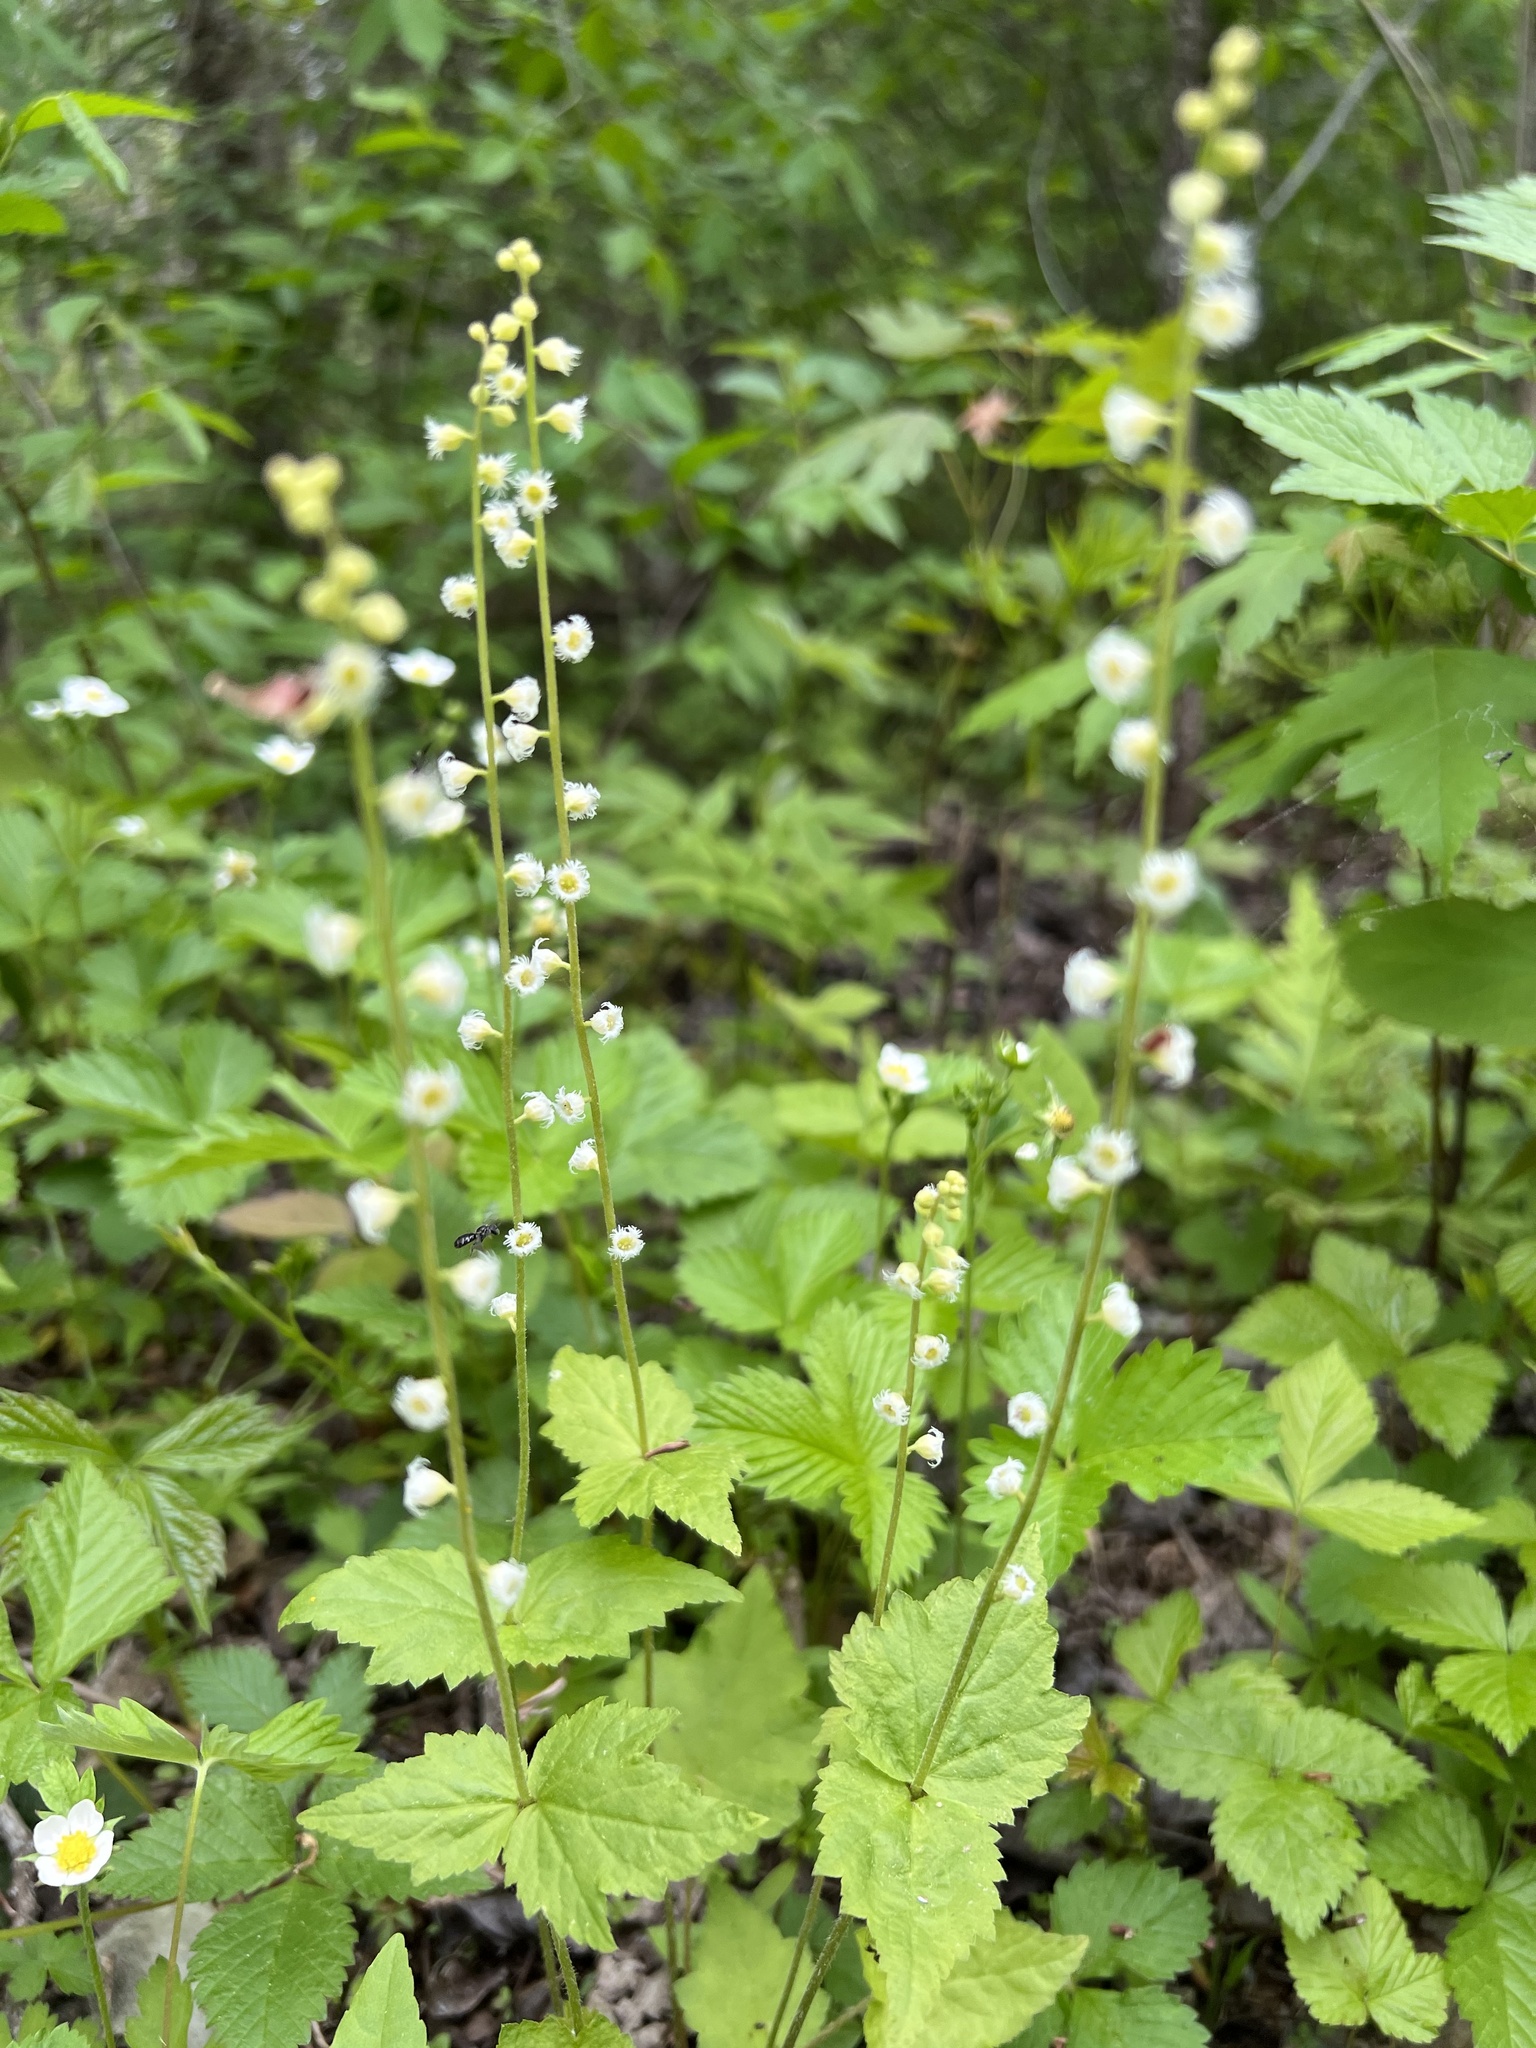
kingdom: Plantae
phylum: Tracheophyta
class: Magnoliopsida
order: Saxifragales
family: Saxifragaceae
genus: Mitella
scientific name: Mitella diphylla
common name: Coolwort
